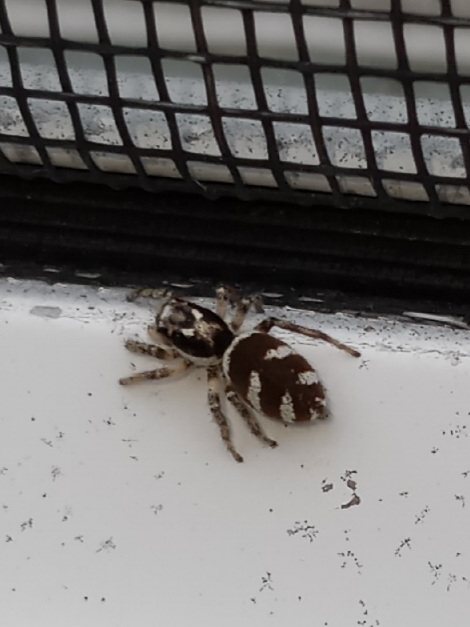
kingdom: Animalia
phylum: Arthropoda
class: Arachnida
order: Araneae
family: Salticidae
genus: Salticus
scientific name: Salticus scenicus
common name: Zebra jumper
